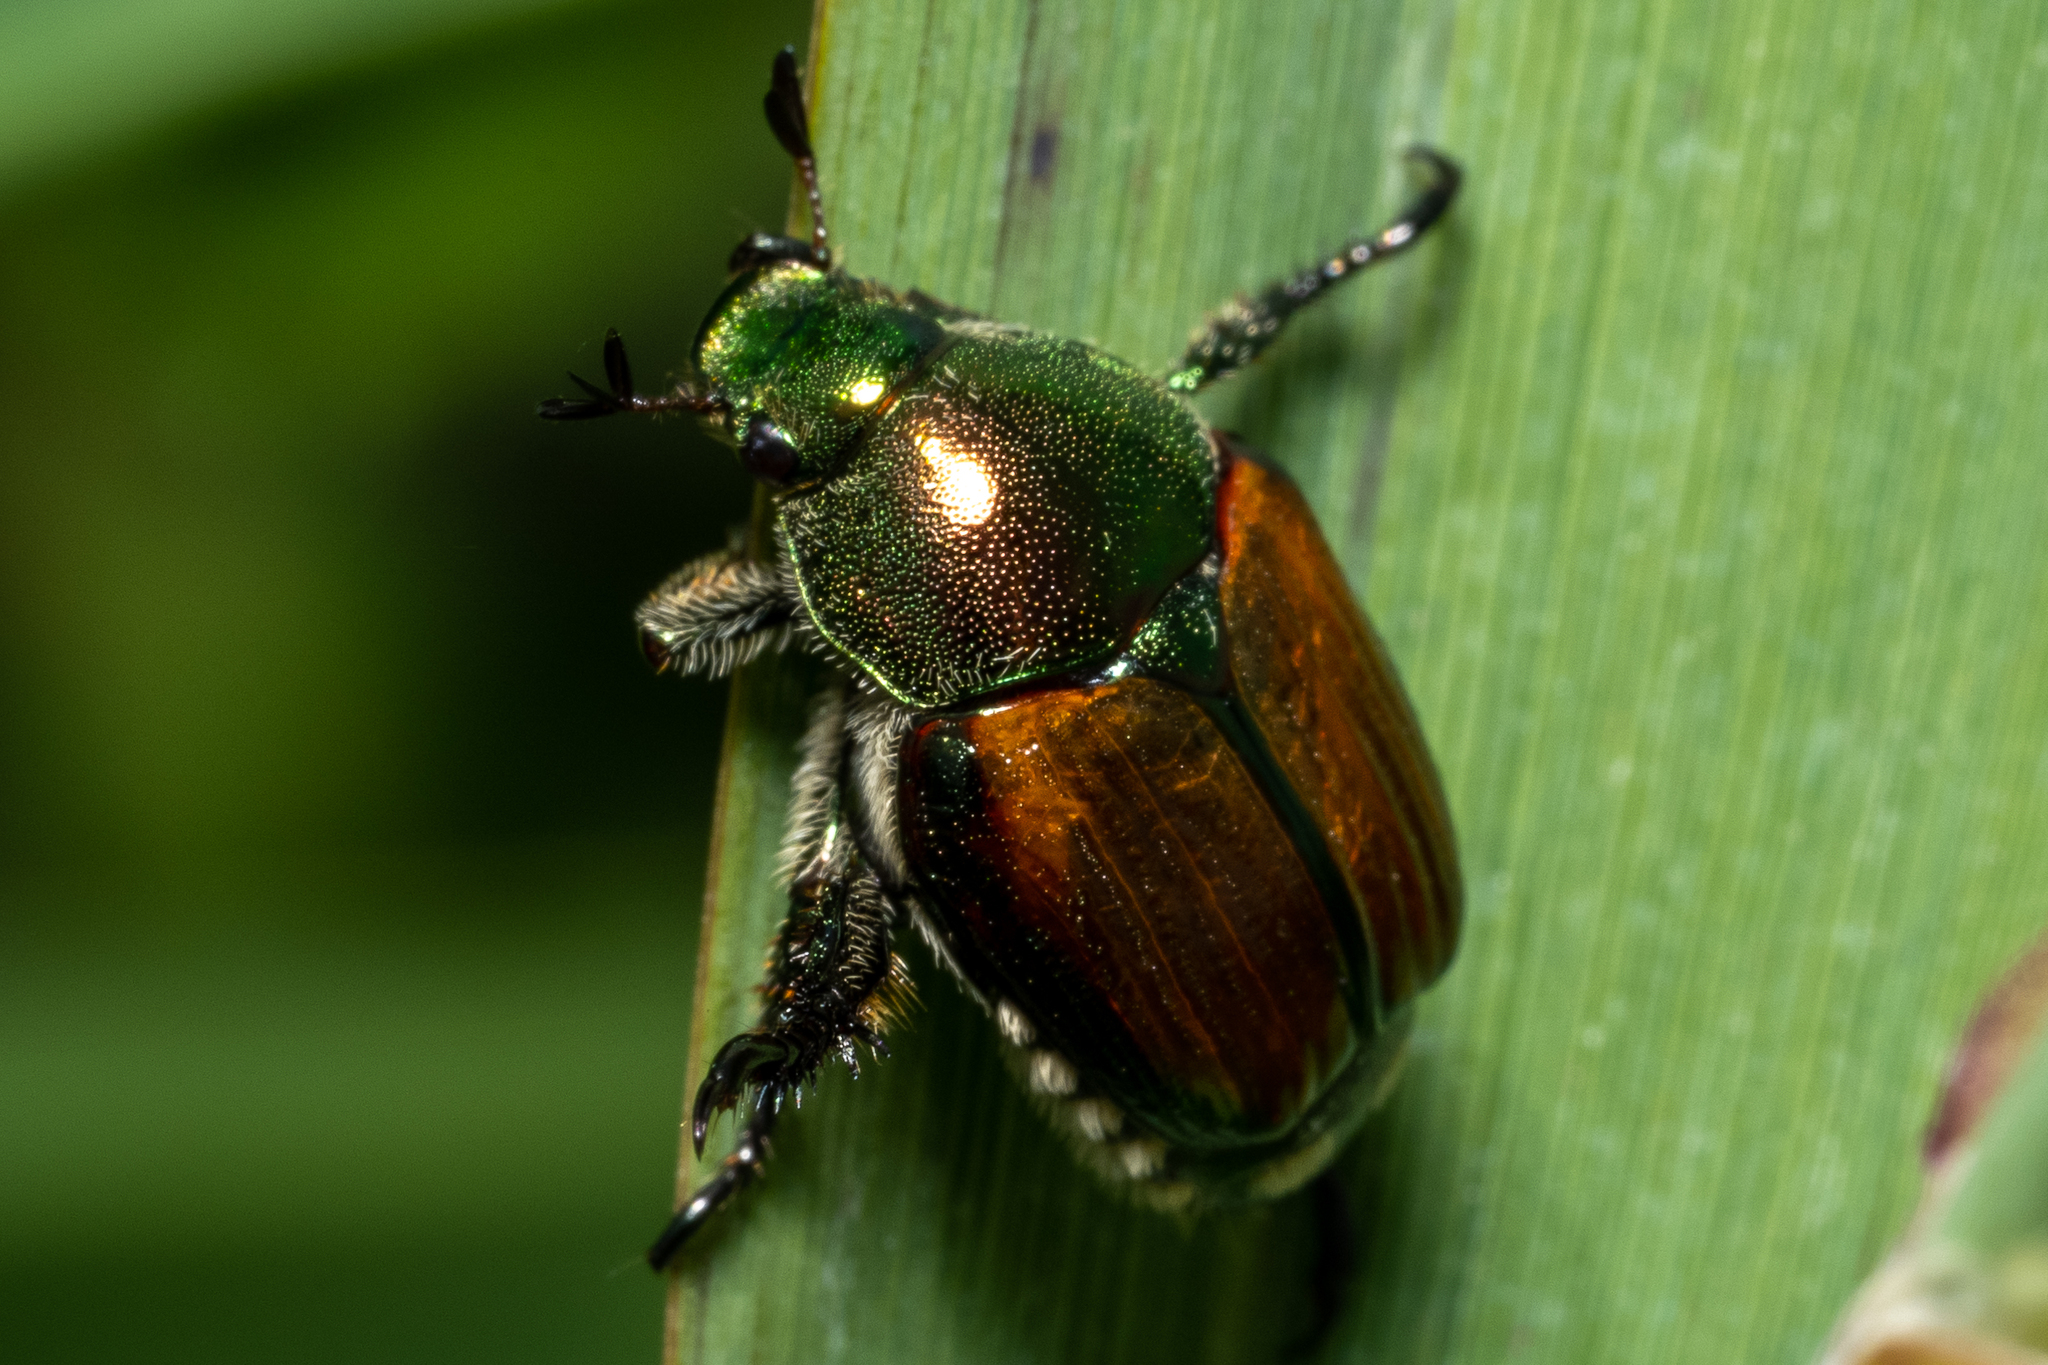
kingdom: Animalia
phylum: Arthropoda
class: Insecta
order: Coleoptera
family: Scarabaeidae
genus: Popillia
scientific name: Popillia japonica
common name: Japanese beetle
